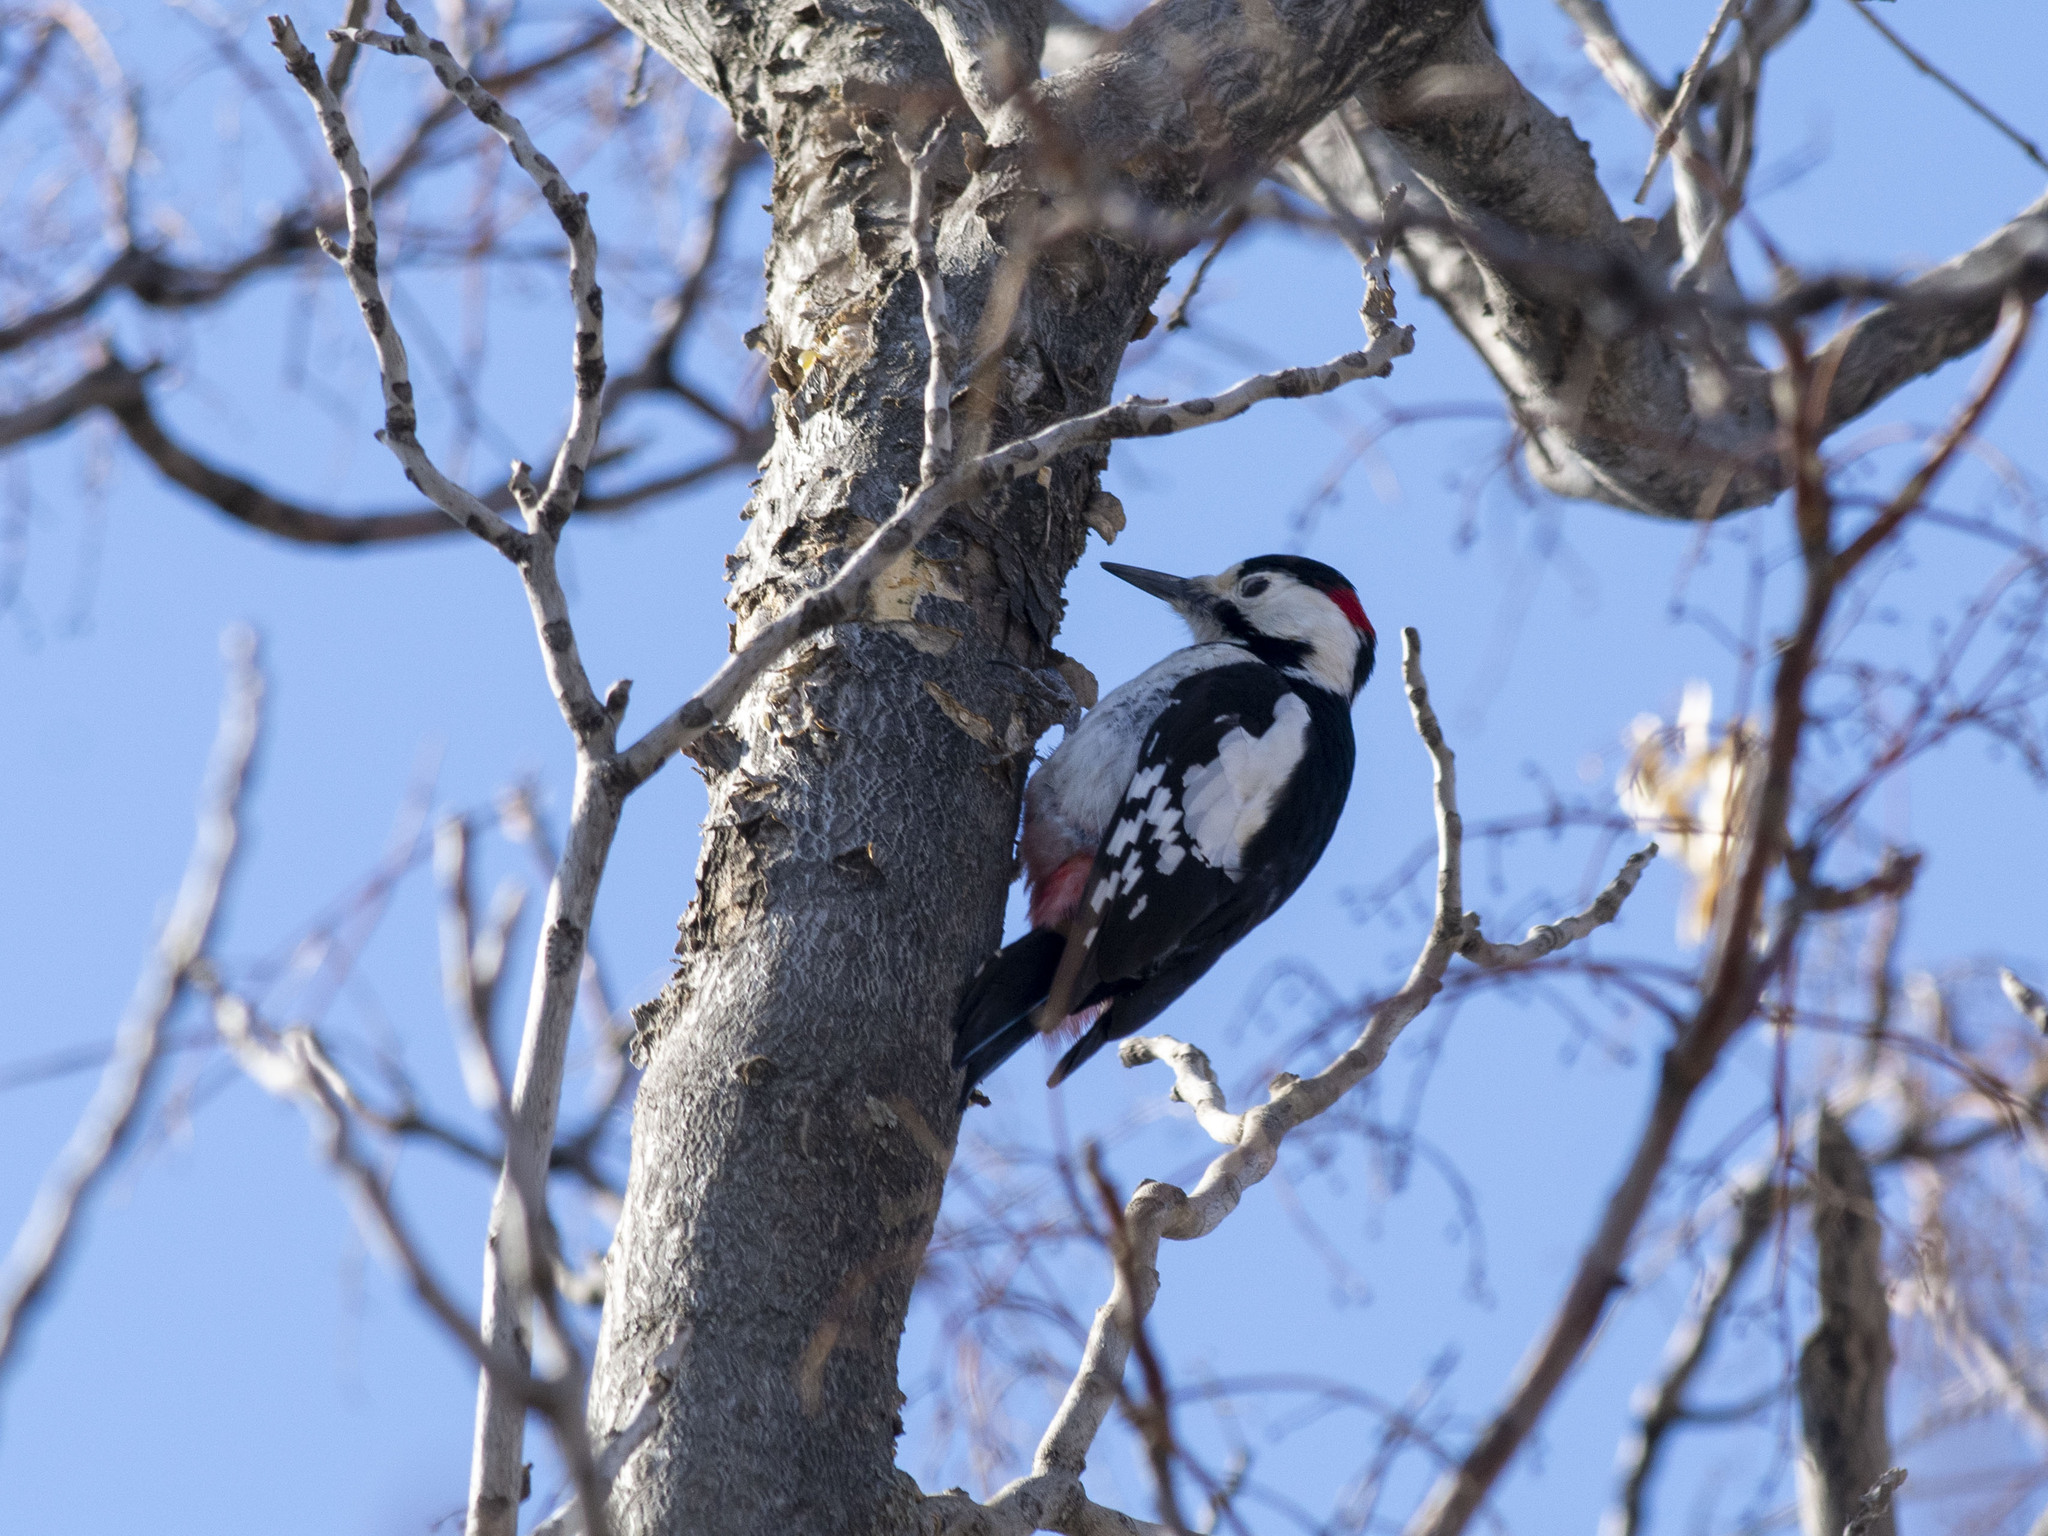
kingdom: Animalia
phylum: Chordata
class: Aves
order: Piciformes
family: Picidae
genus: Dendrocopos
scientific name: Dendrocopos syriacus
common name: Syrian woodpecker
